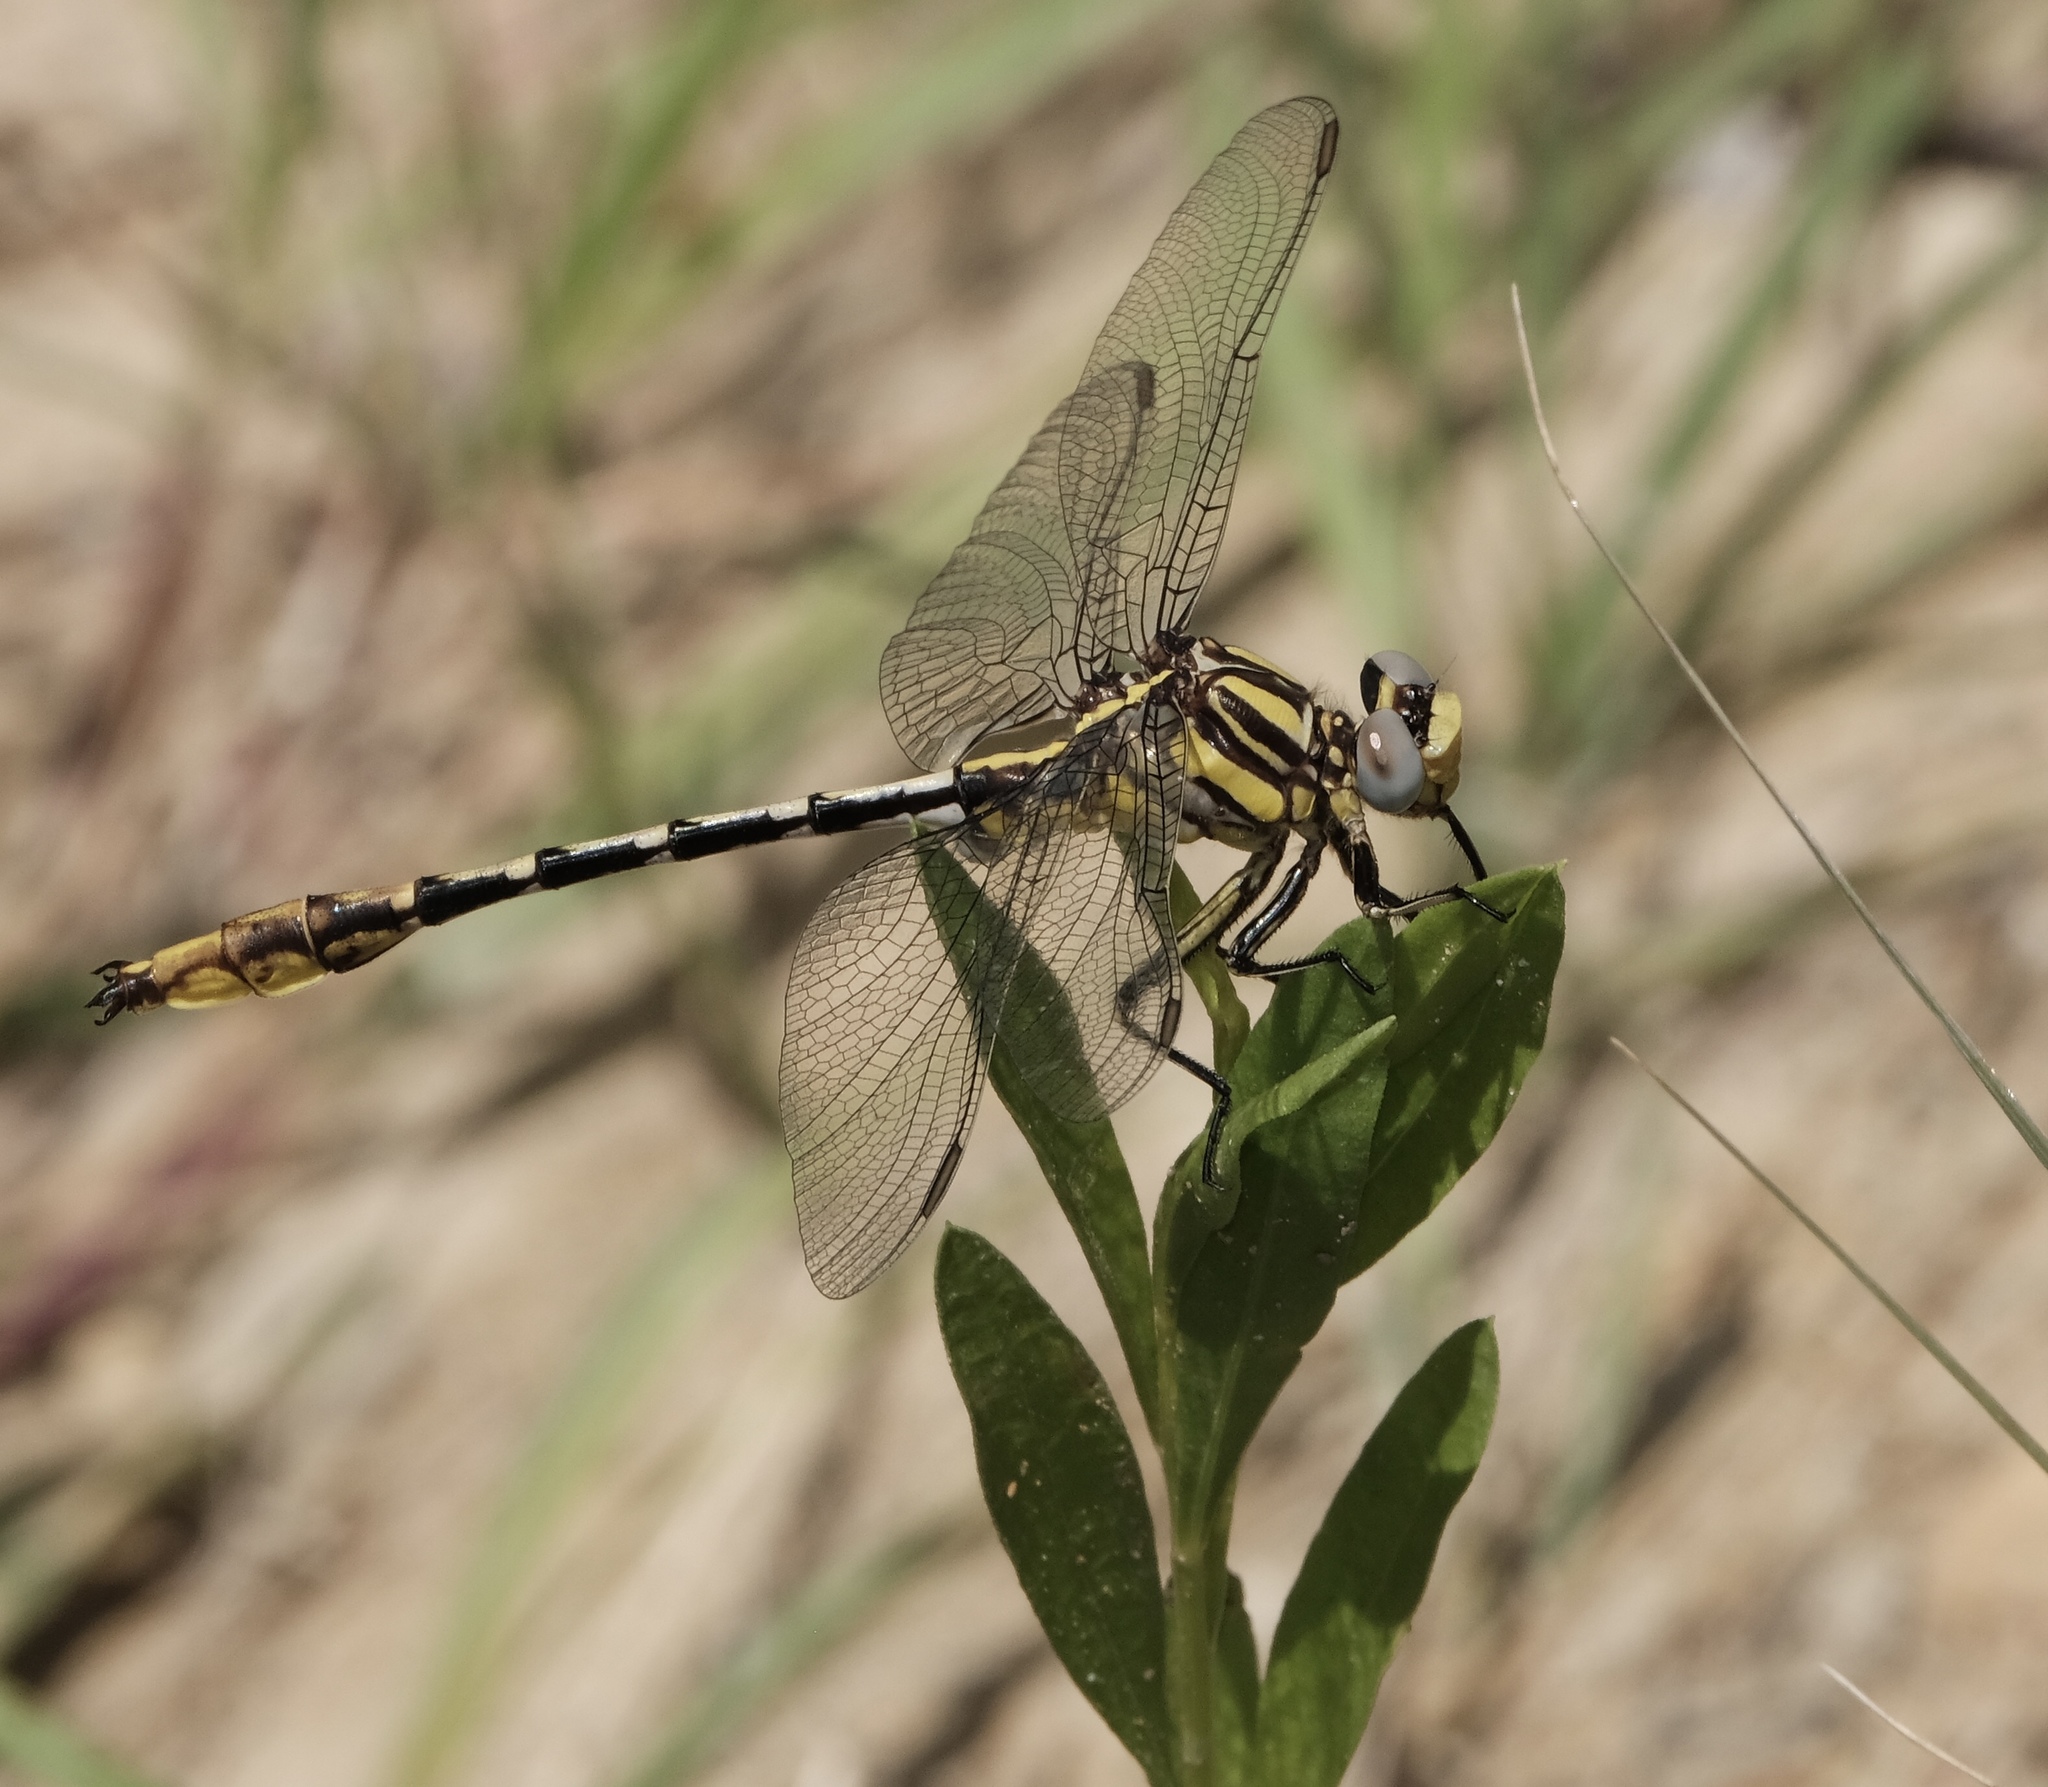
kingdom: Animalia
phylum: Arthropoda
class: Insecta
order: Odonata
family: Gomphidae
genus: Phanogomphus
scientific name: Phanogomphus militaris
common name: Sulphur-tipped clubtail
